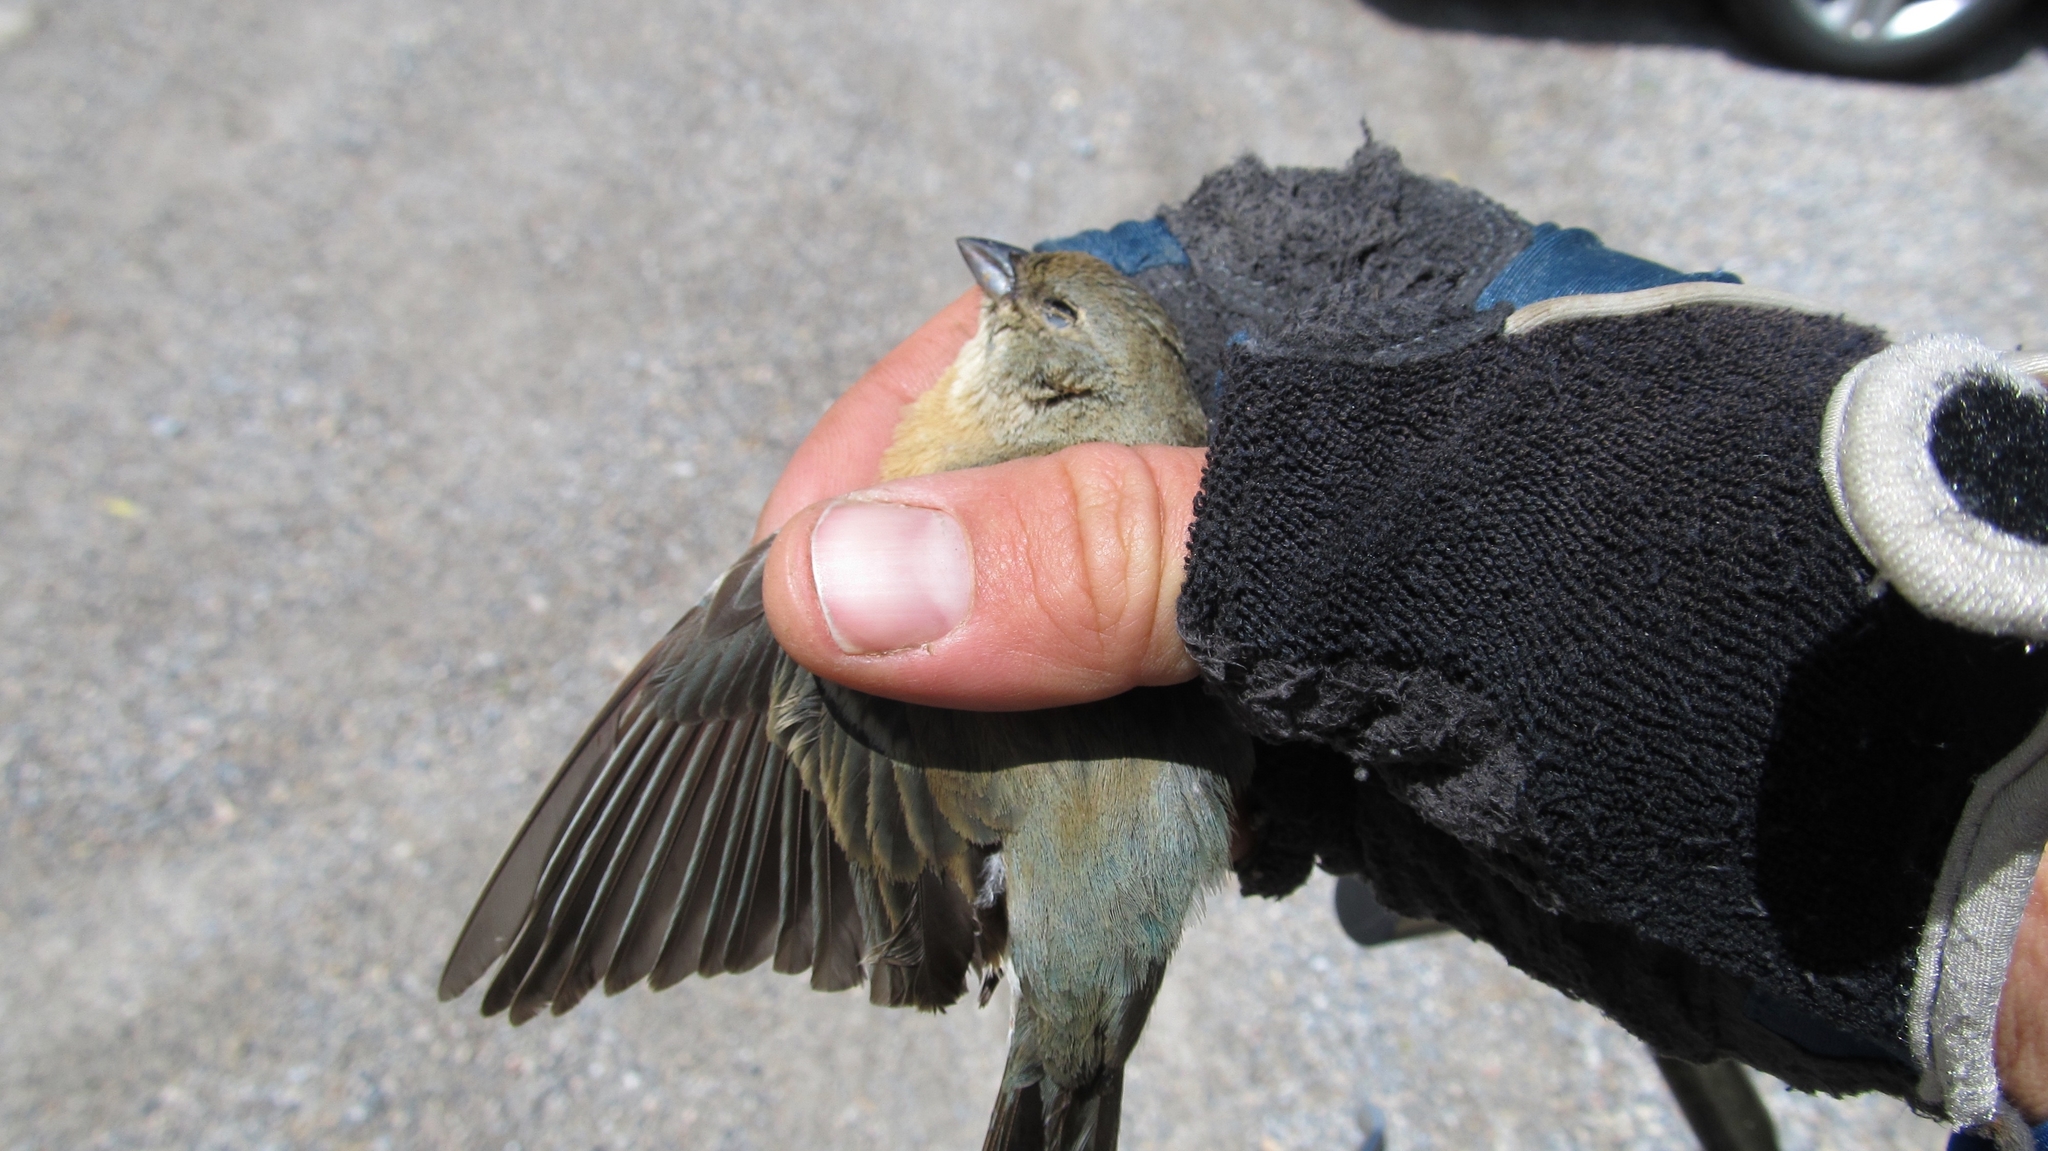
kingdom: Animalia
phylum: Chordata
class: Aves
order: Passeriformes
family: Cardinalidae
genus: Passerina
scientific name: Passerina amoena
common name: Lazuli bunting
